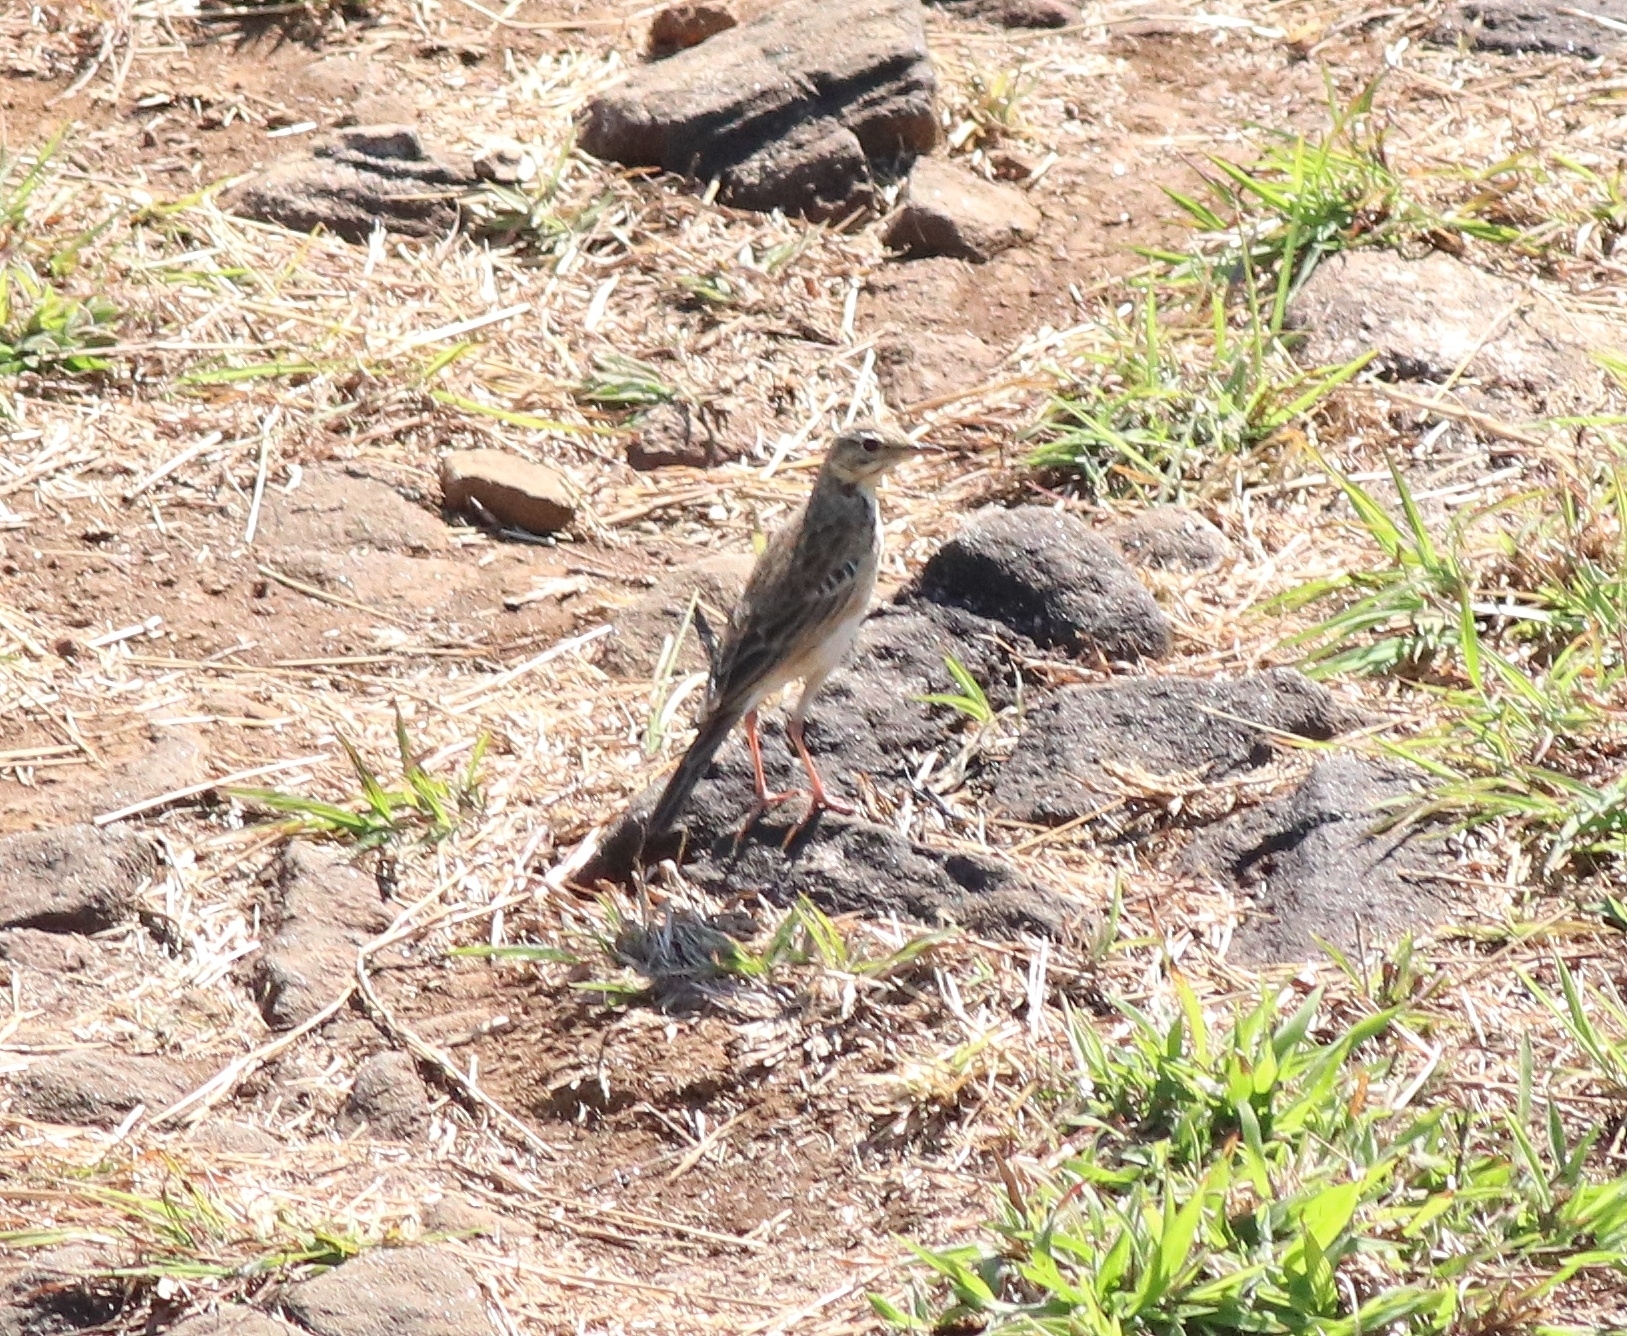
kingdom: Animalia
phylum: Chordata
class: Aves
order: Passeriformes
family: Motacillidae
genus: Anthus
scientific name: Anthus rufulus
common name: Paddyfield pipit
